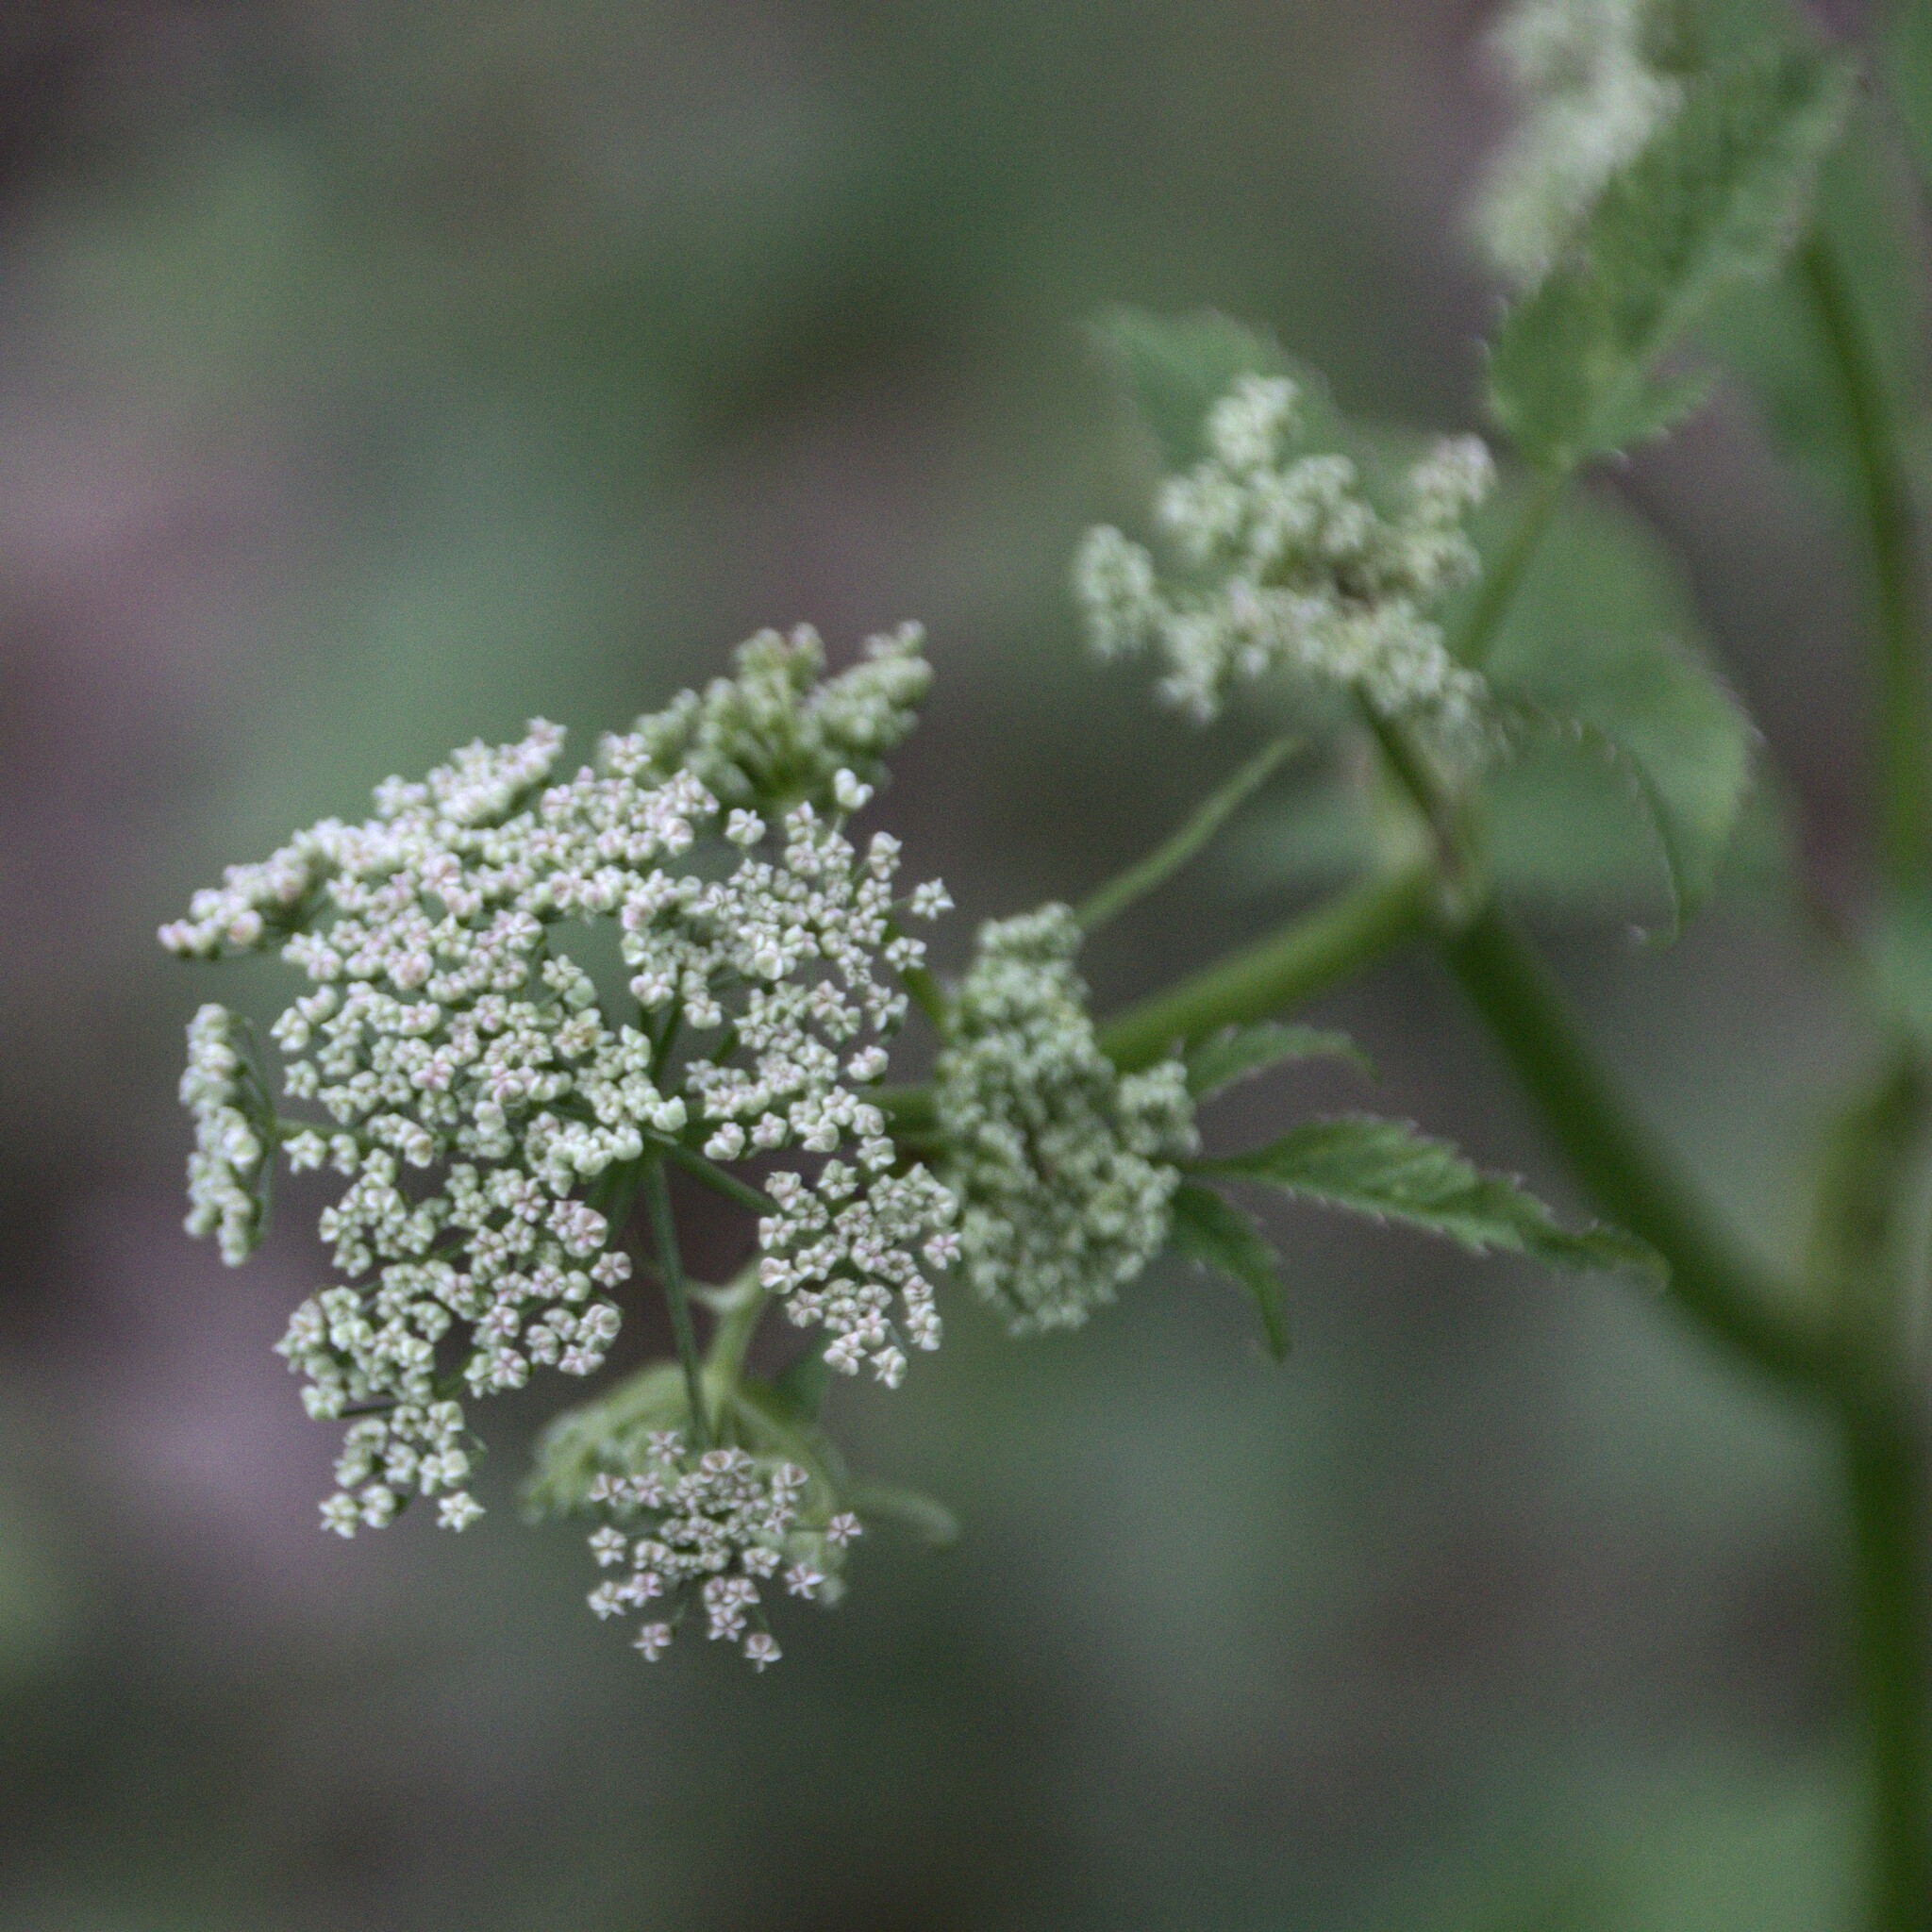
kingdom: Plantae
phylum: Tracheophyta
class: Magnoliopsida
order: Apiales
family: Apiaceae
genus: Aegopodium
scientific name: Aegopodium podagraria
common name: Ground-elder
